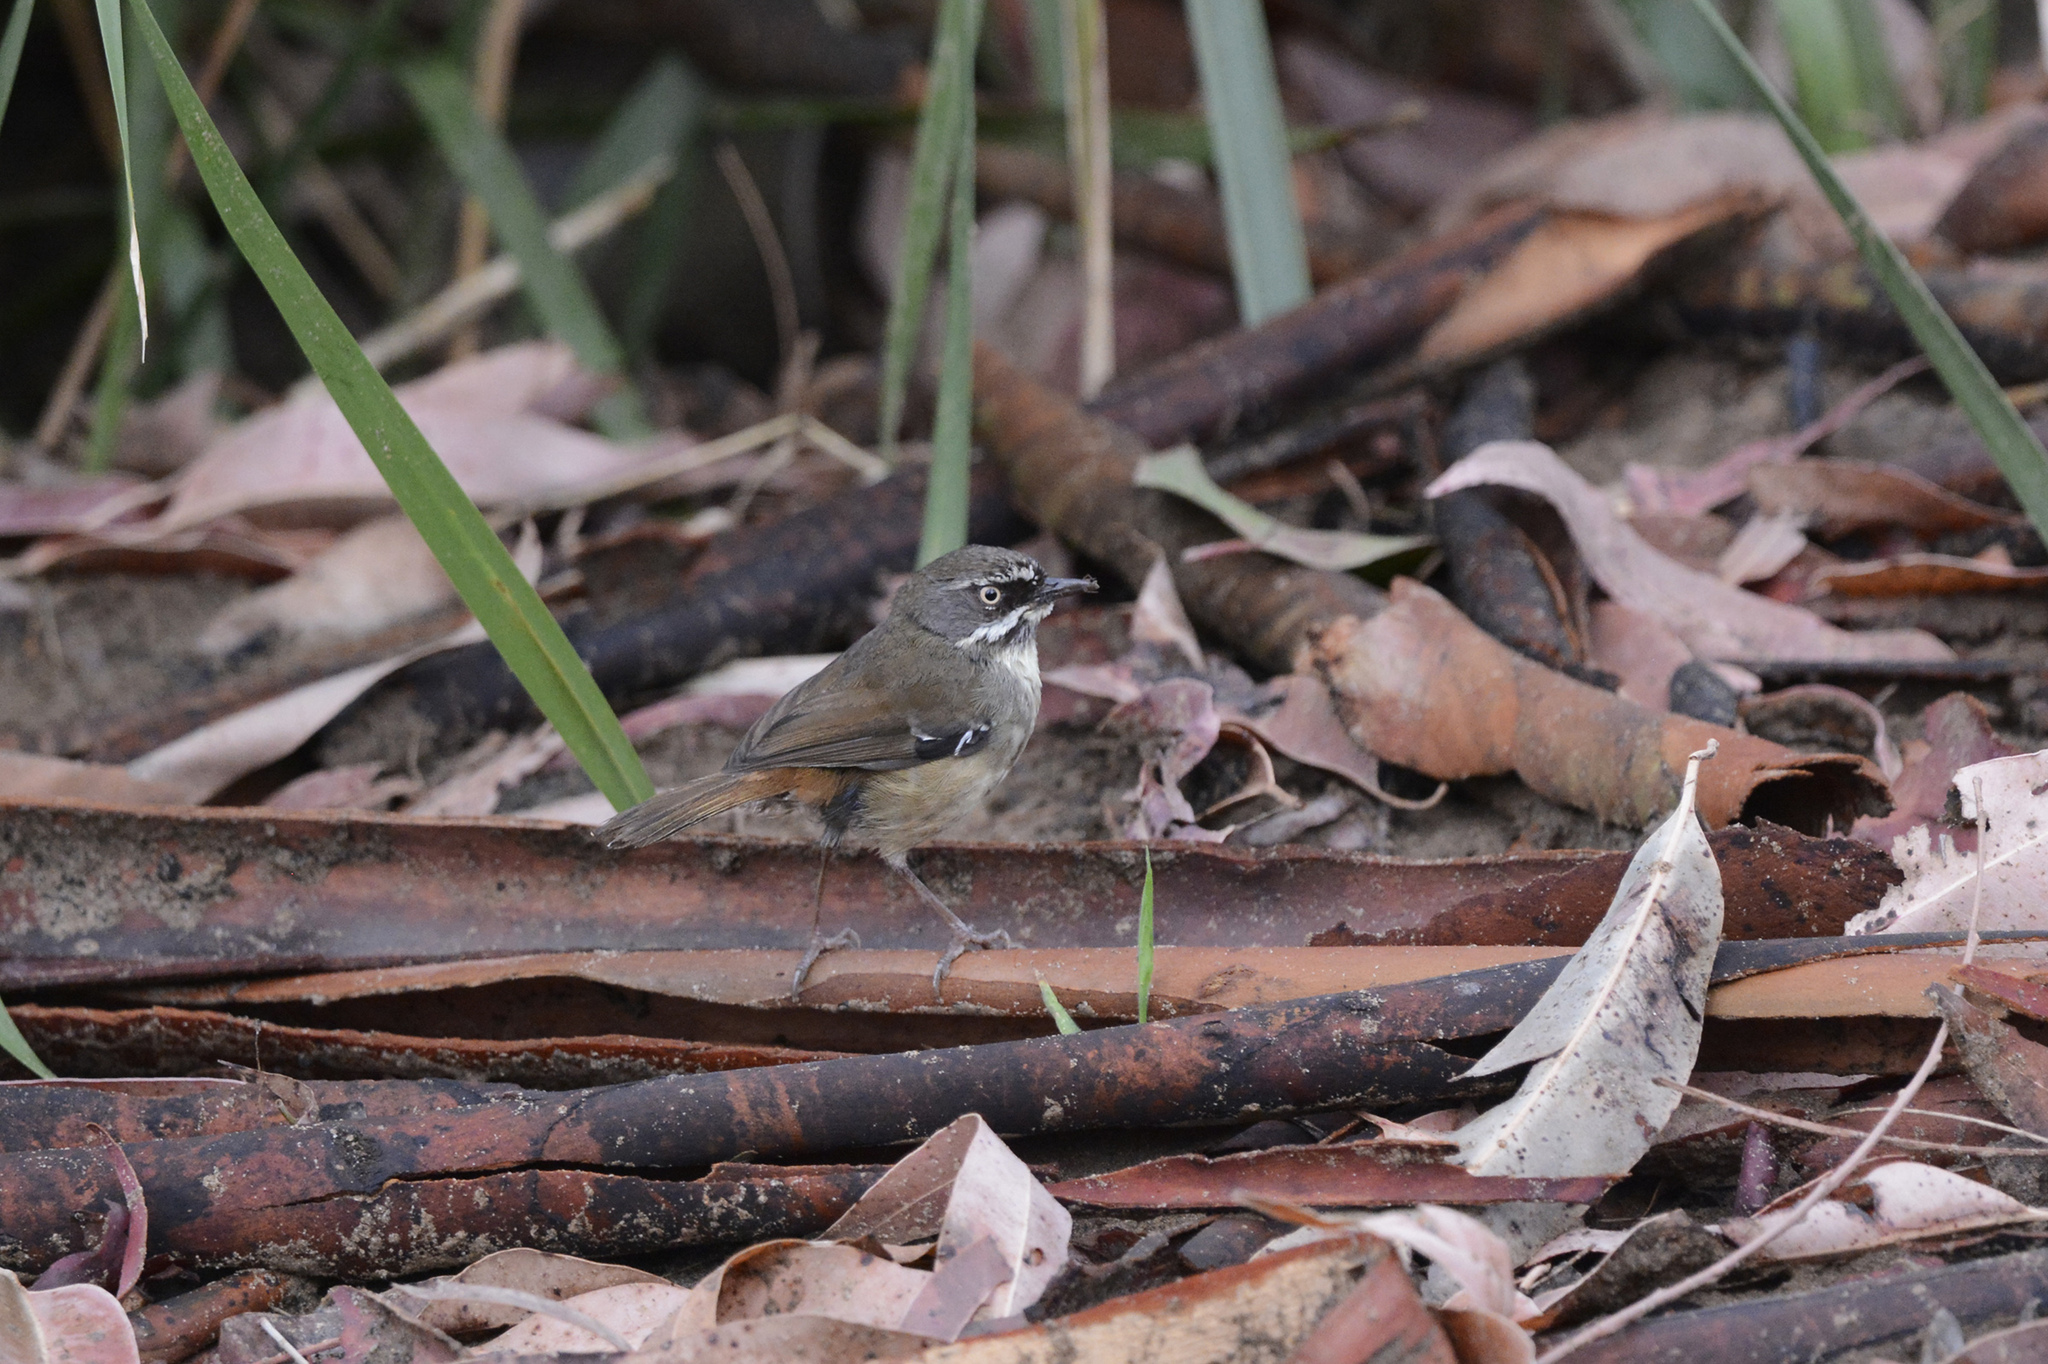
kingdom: Animalia
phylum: Chordata
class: Aves
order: Passeriformes
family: Acanthizidae
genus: Sericornis
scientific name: Sericornis frontalis
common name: White-browed scrubwren
